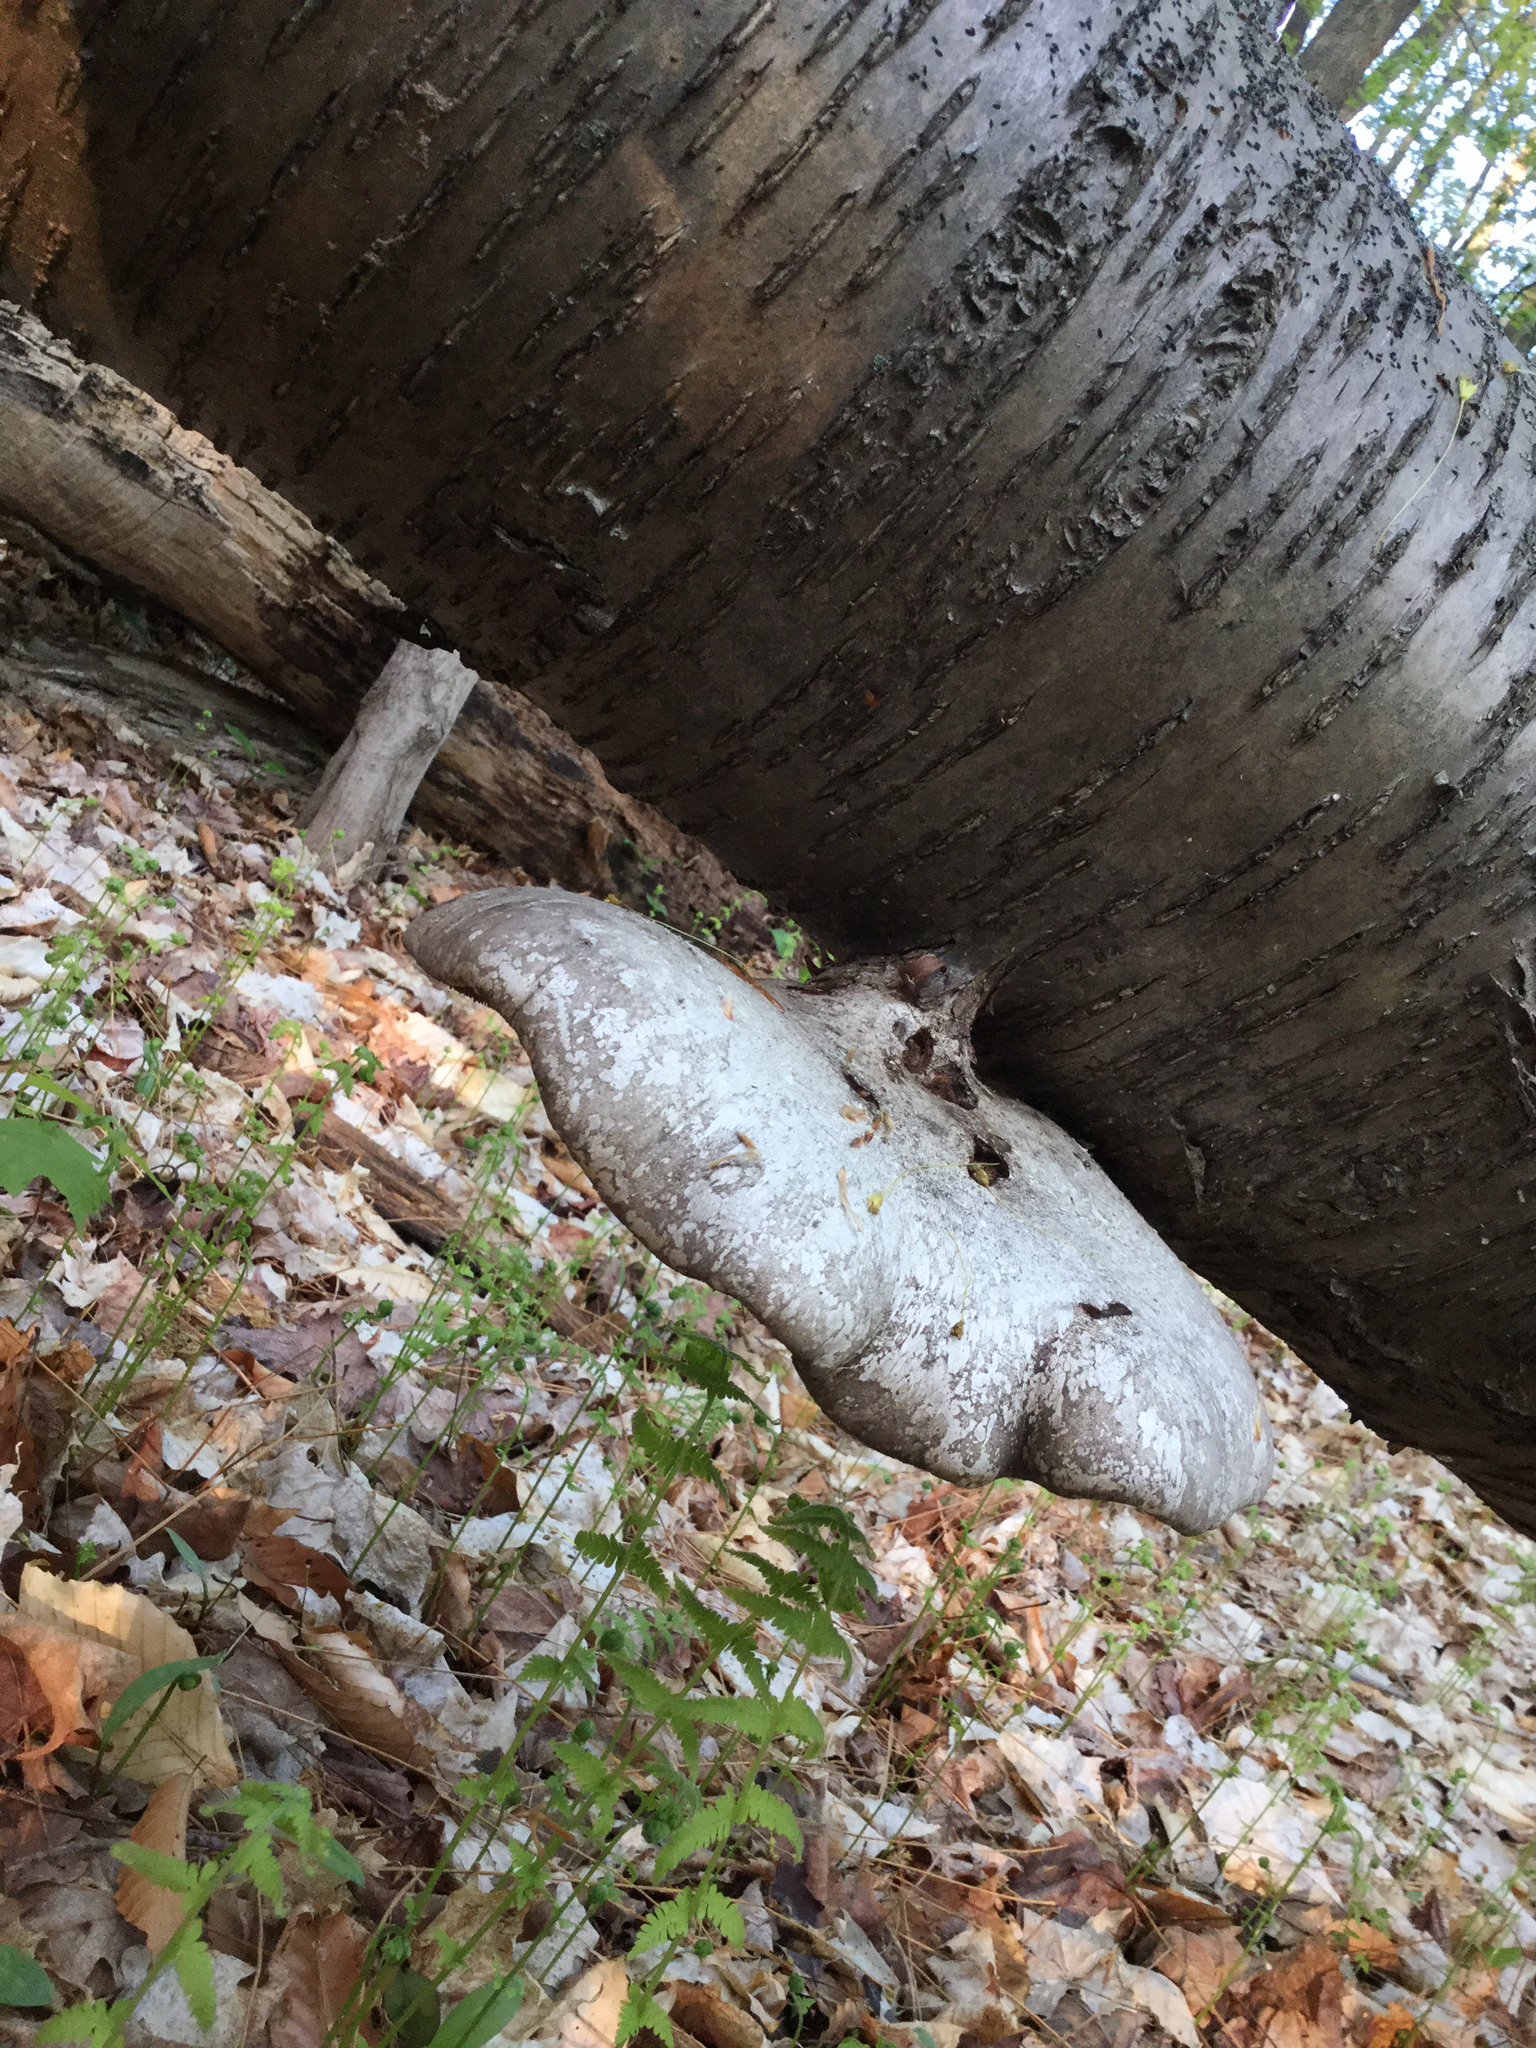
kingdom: Fungi
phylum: Basidiomycota
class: Agaricomycetes
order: Polyporales
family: Fomitopsidaceae
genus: Fomitopsis
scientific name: Fomitopsis betulina
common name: Birch polypore
